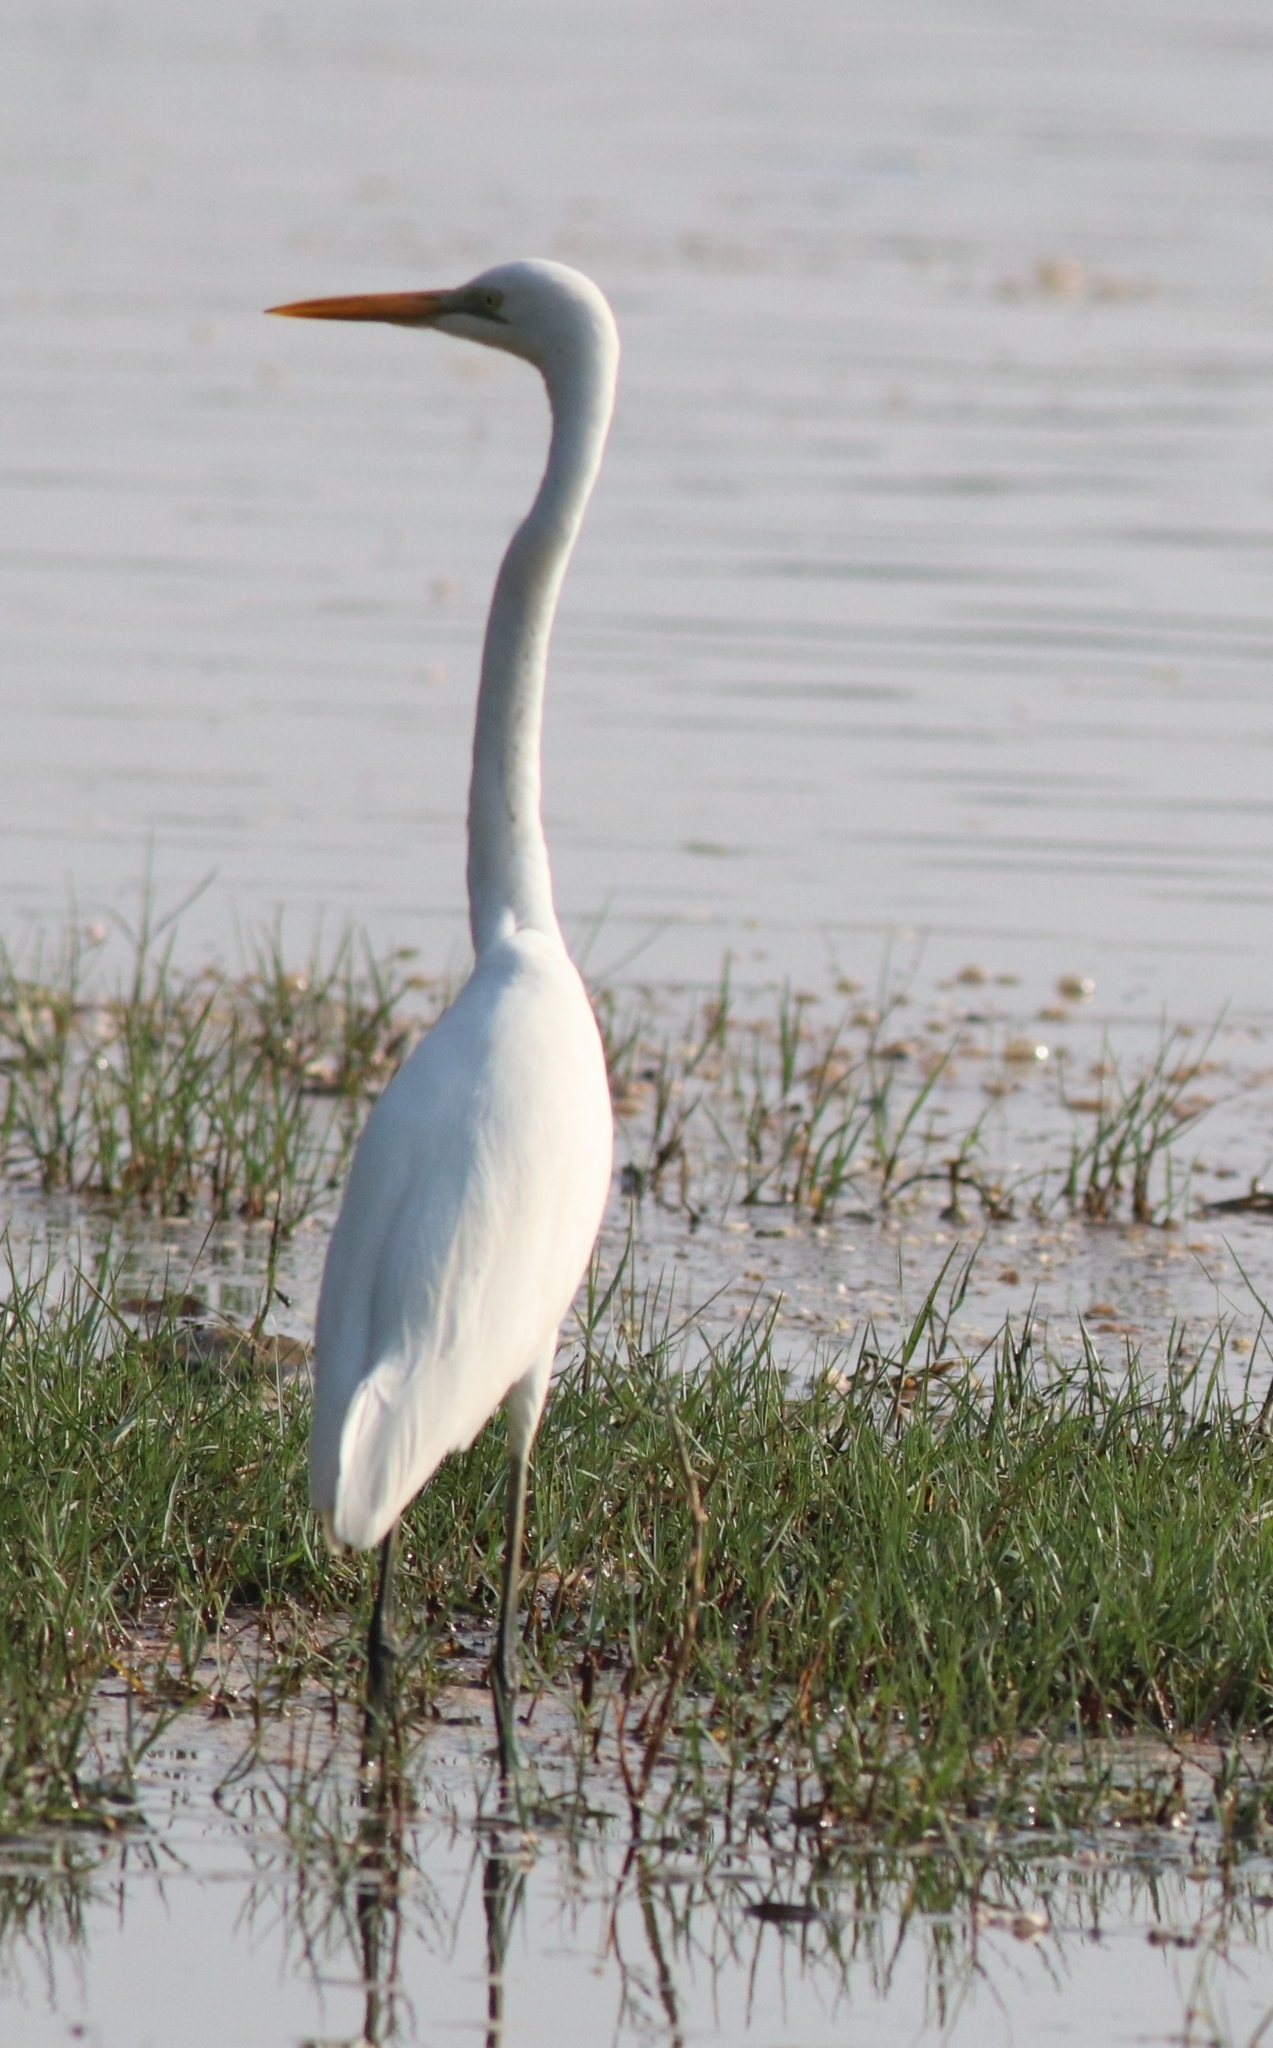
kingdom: Animalia
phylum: Chordata
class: Aves
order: Pelecaniformes
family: Ardeidae
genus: Ardea
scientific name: Ardea alba
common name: Great egret
